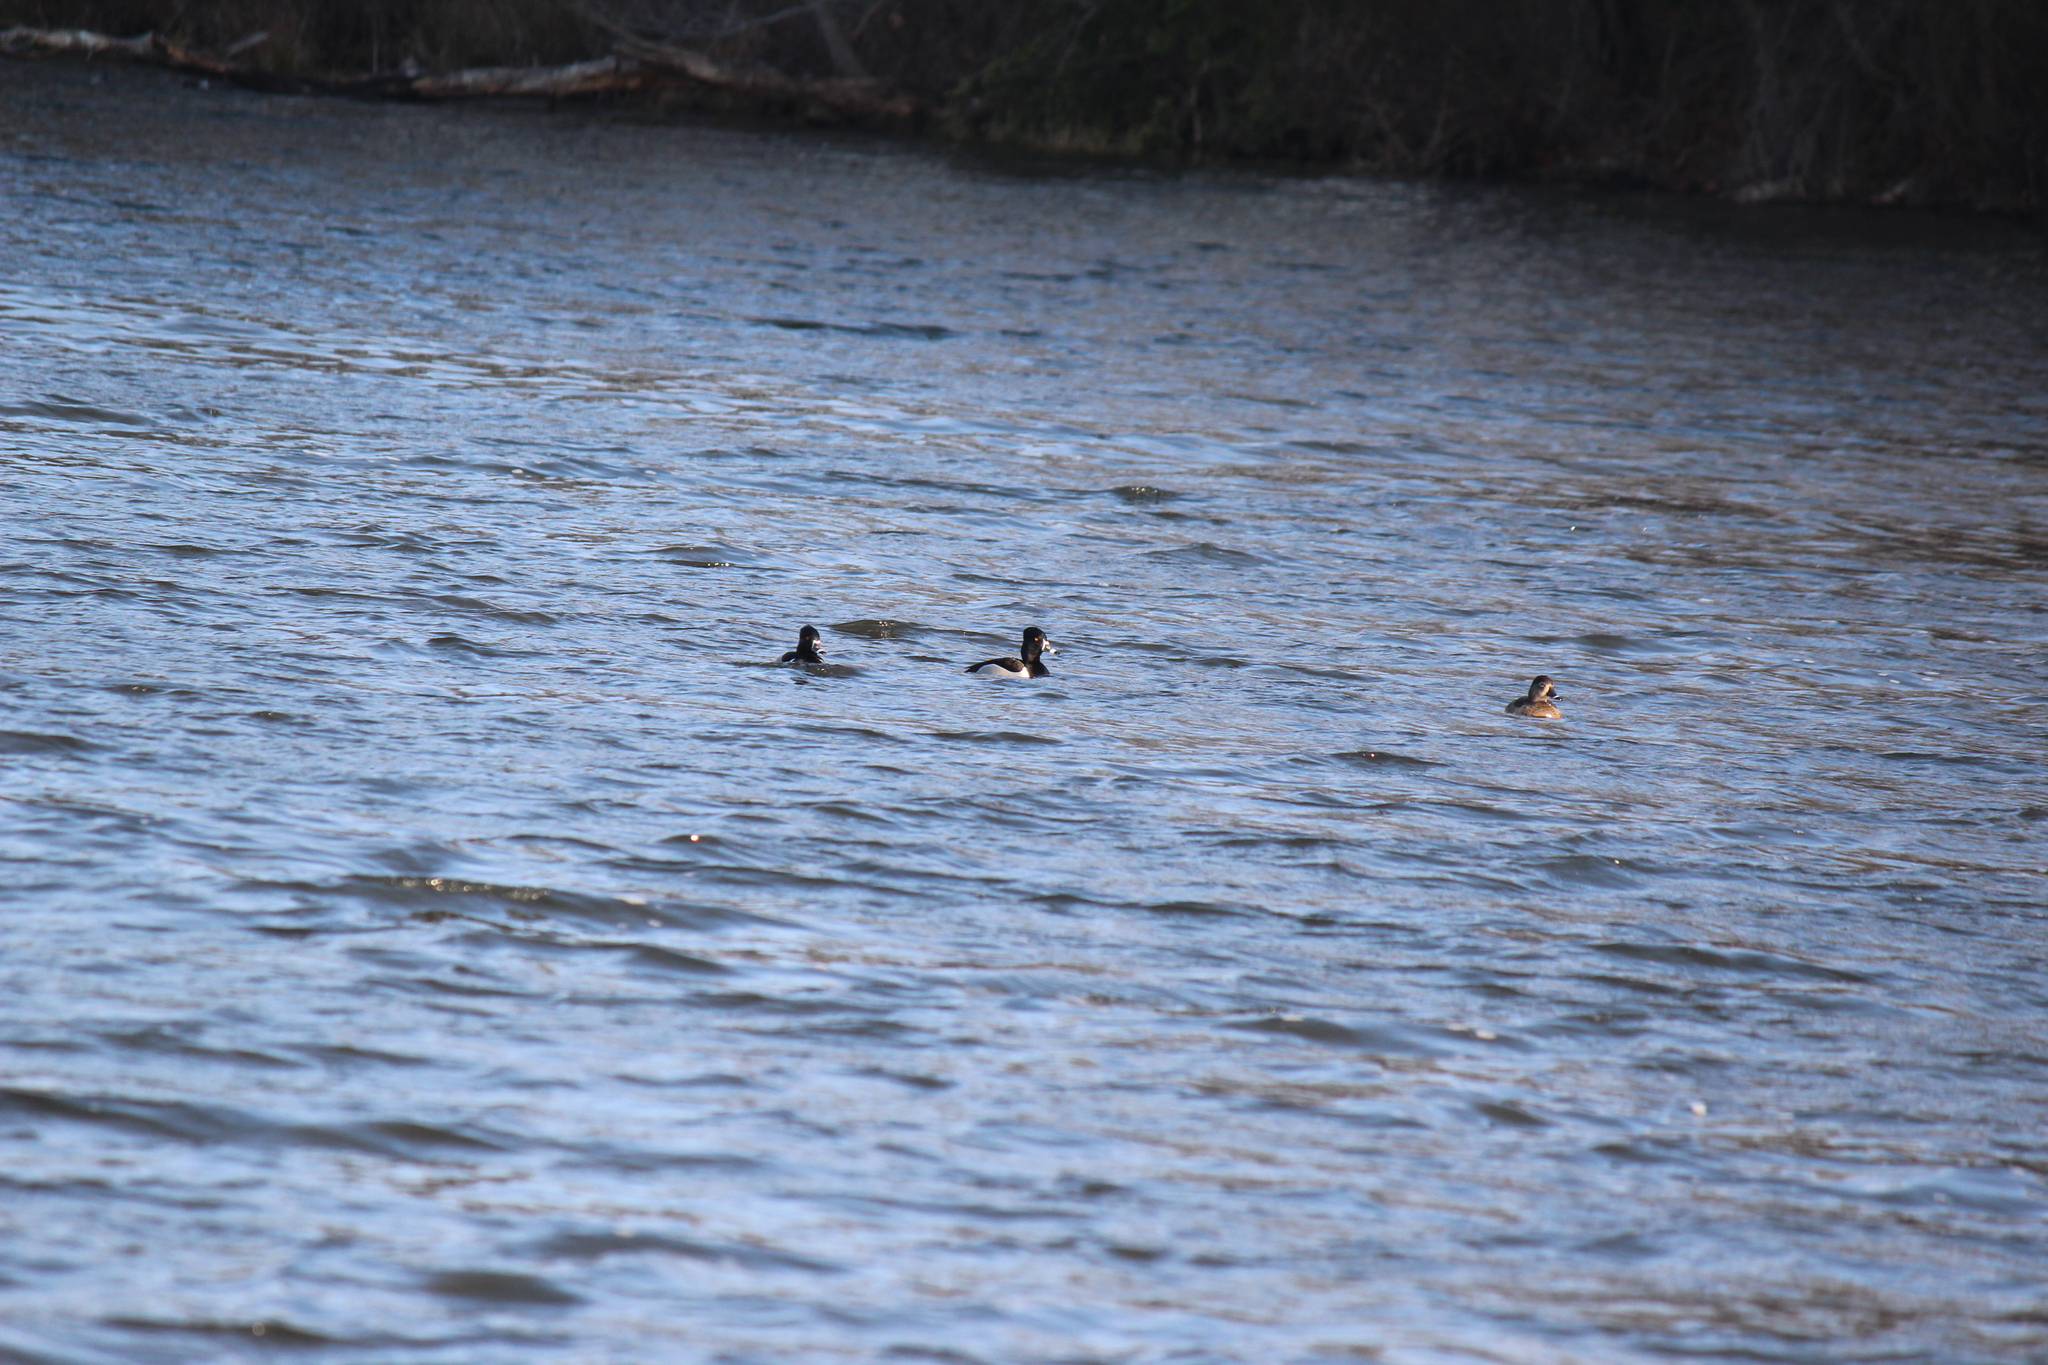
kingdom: Animalia
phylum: Chordata
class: Aves
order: Anseriformes
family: Anatidae
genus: Aythya
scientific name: Aythya collaris
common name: Ring-necked duck
